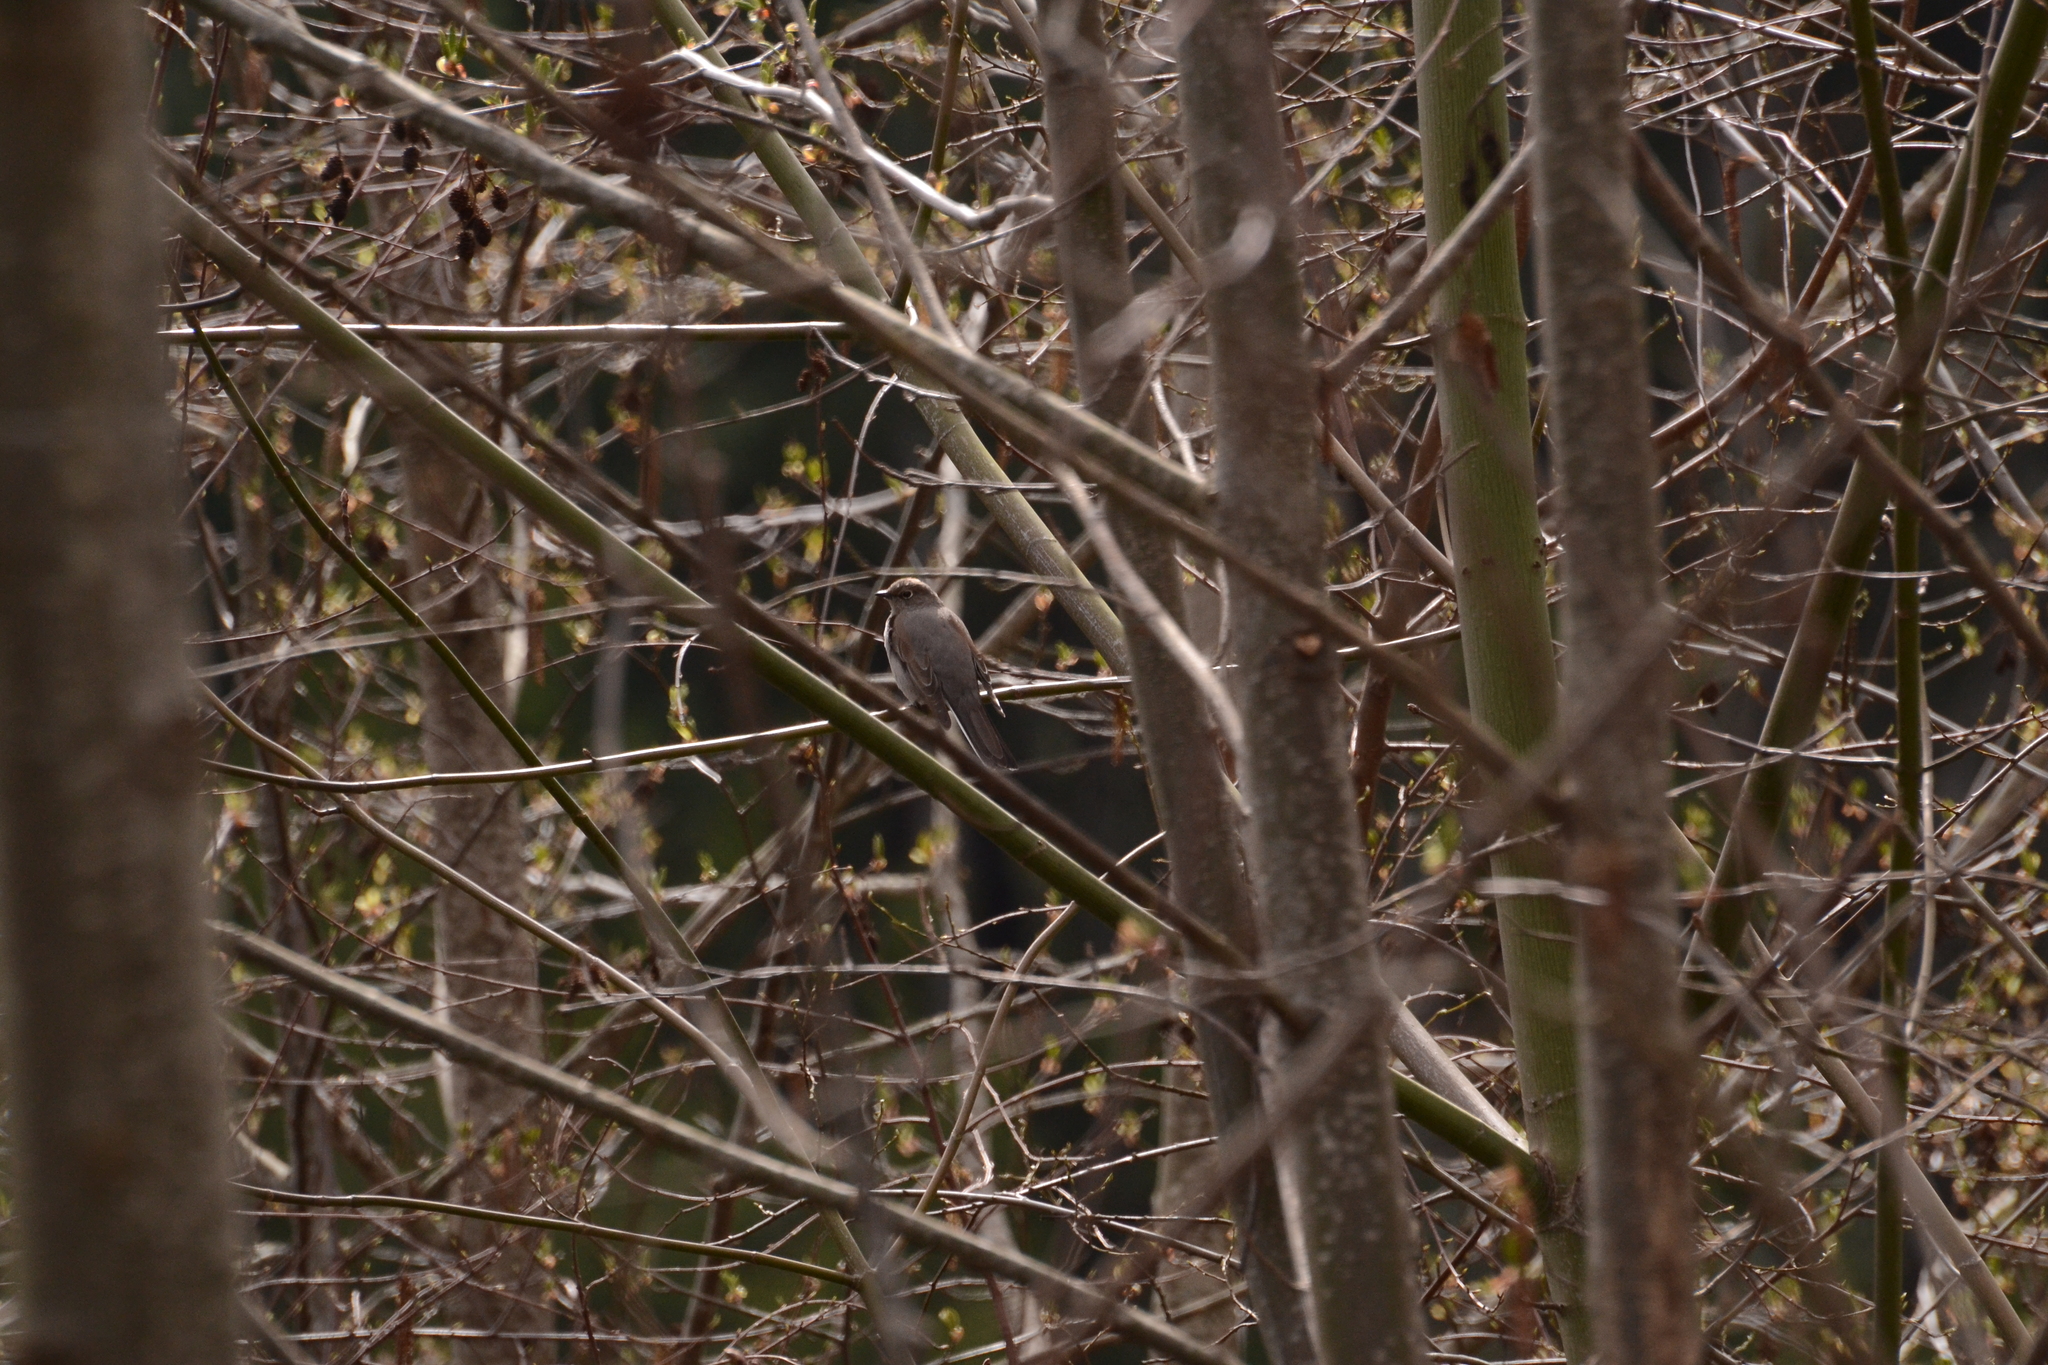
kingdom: Animalia
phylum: Chordata
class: Aves
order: Passeriformes
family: Turdidae
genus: Myadestes
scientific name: Myadestes townsendi
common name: Townsend's solitaire
